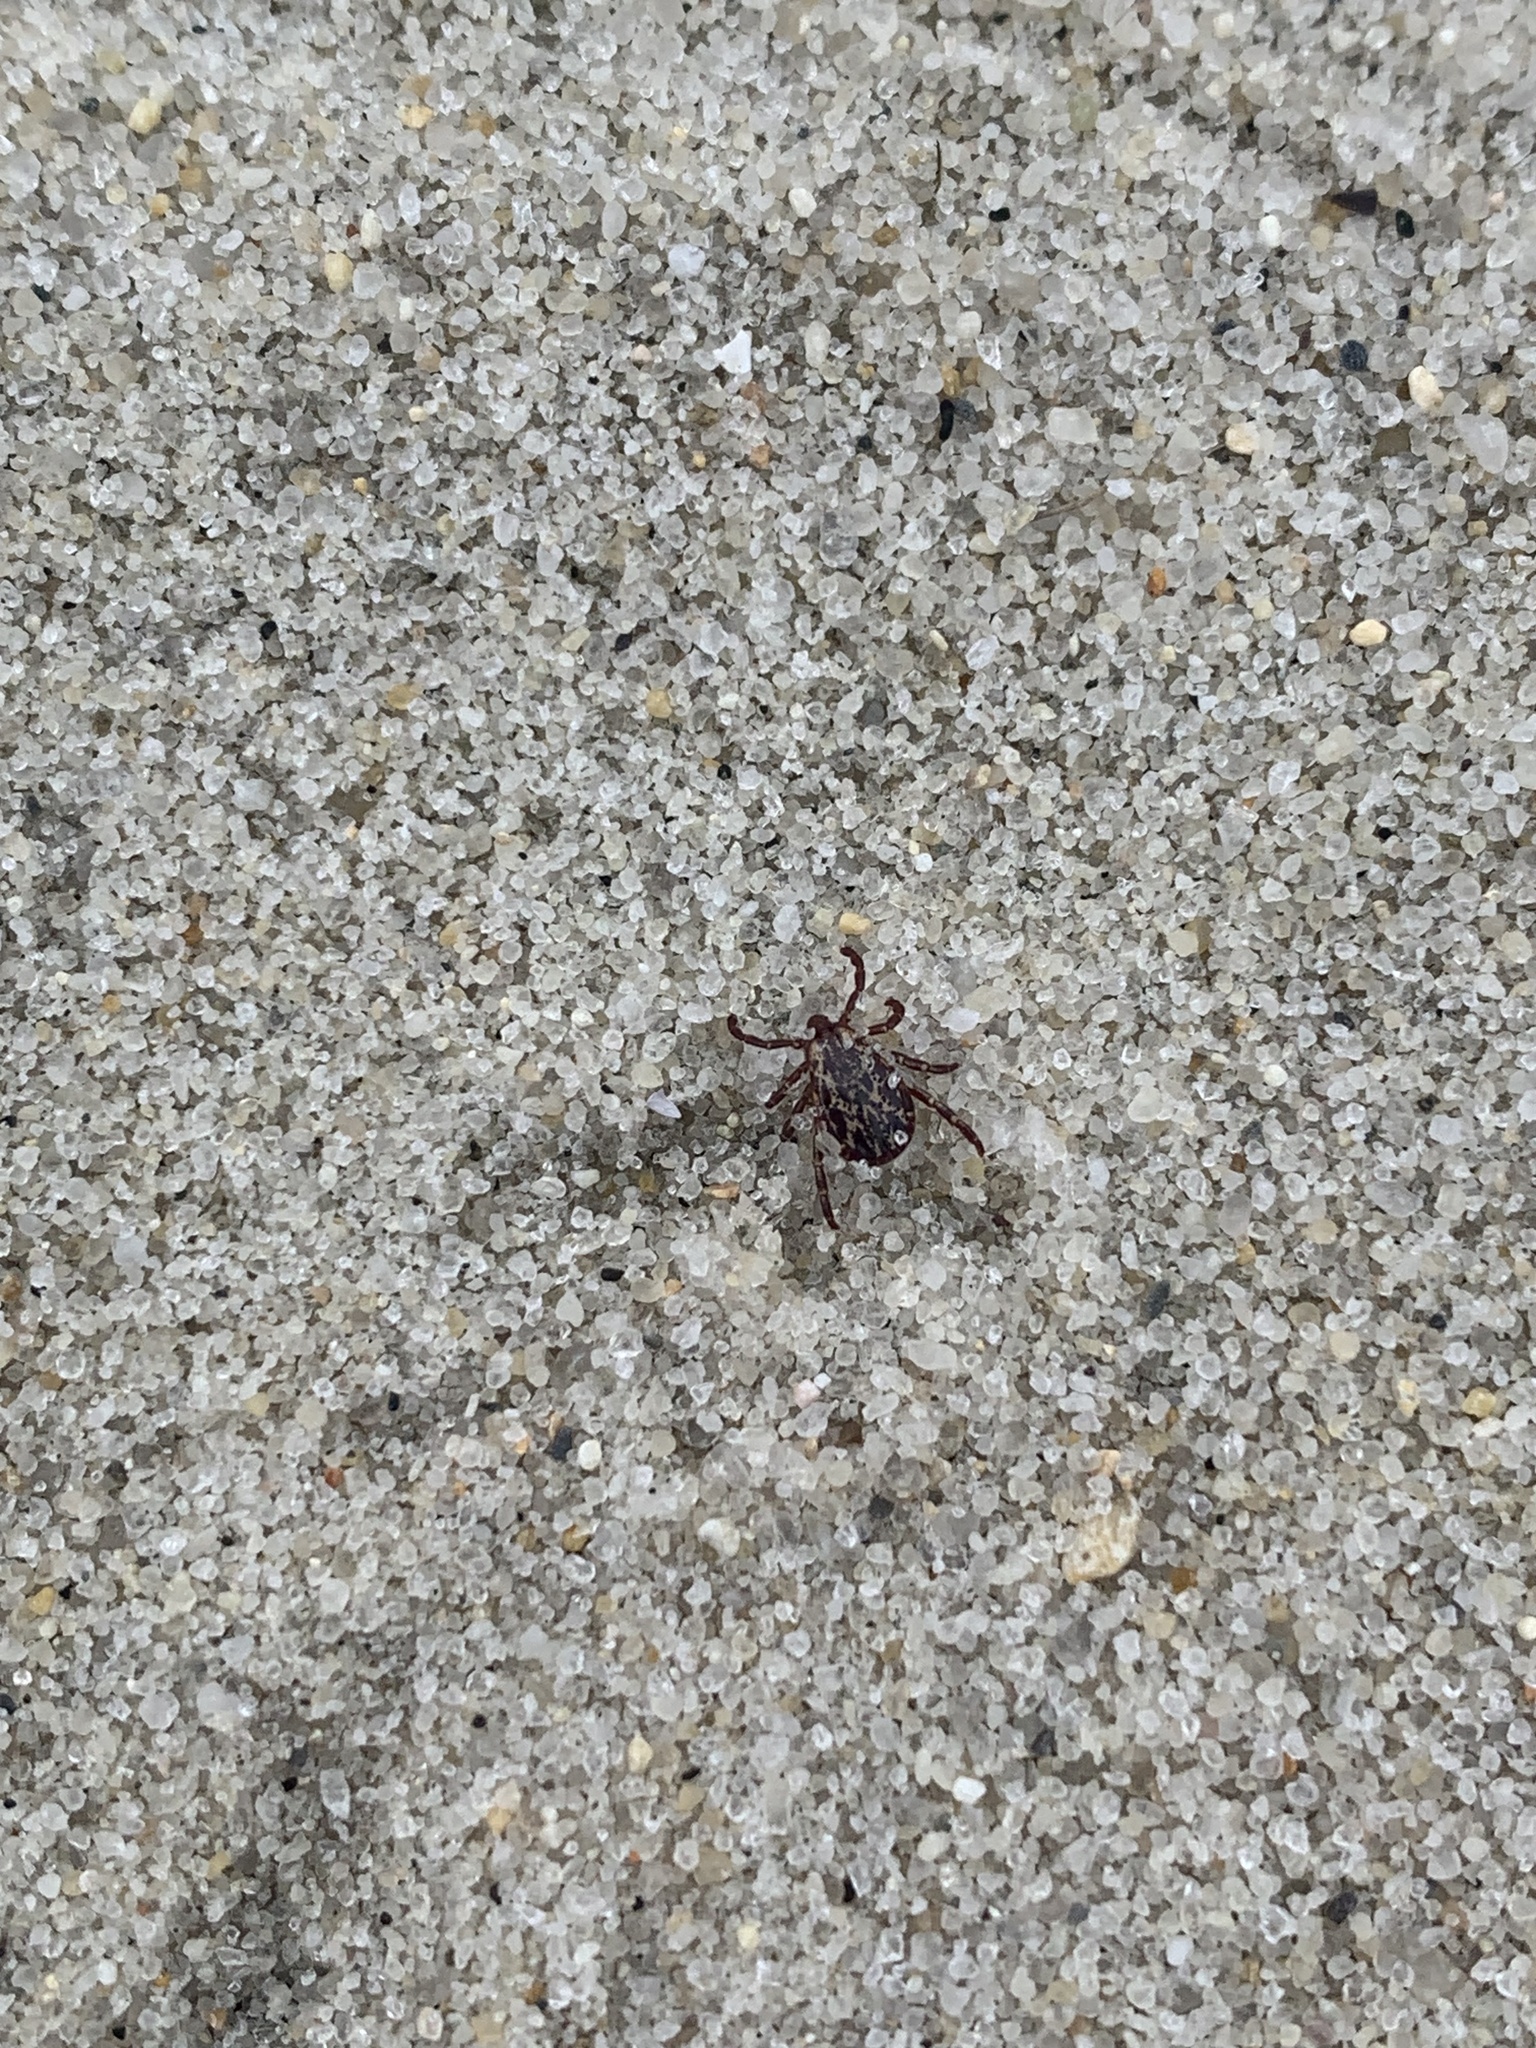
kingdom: Animalia
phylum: Arthropoda
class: Arachnida
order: Ixodida
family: Ixodidae
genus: Dermacentor
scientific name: Dermacentor variabilis
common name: American dog tick
